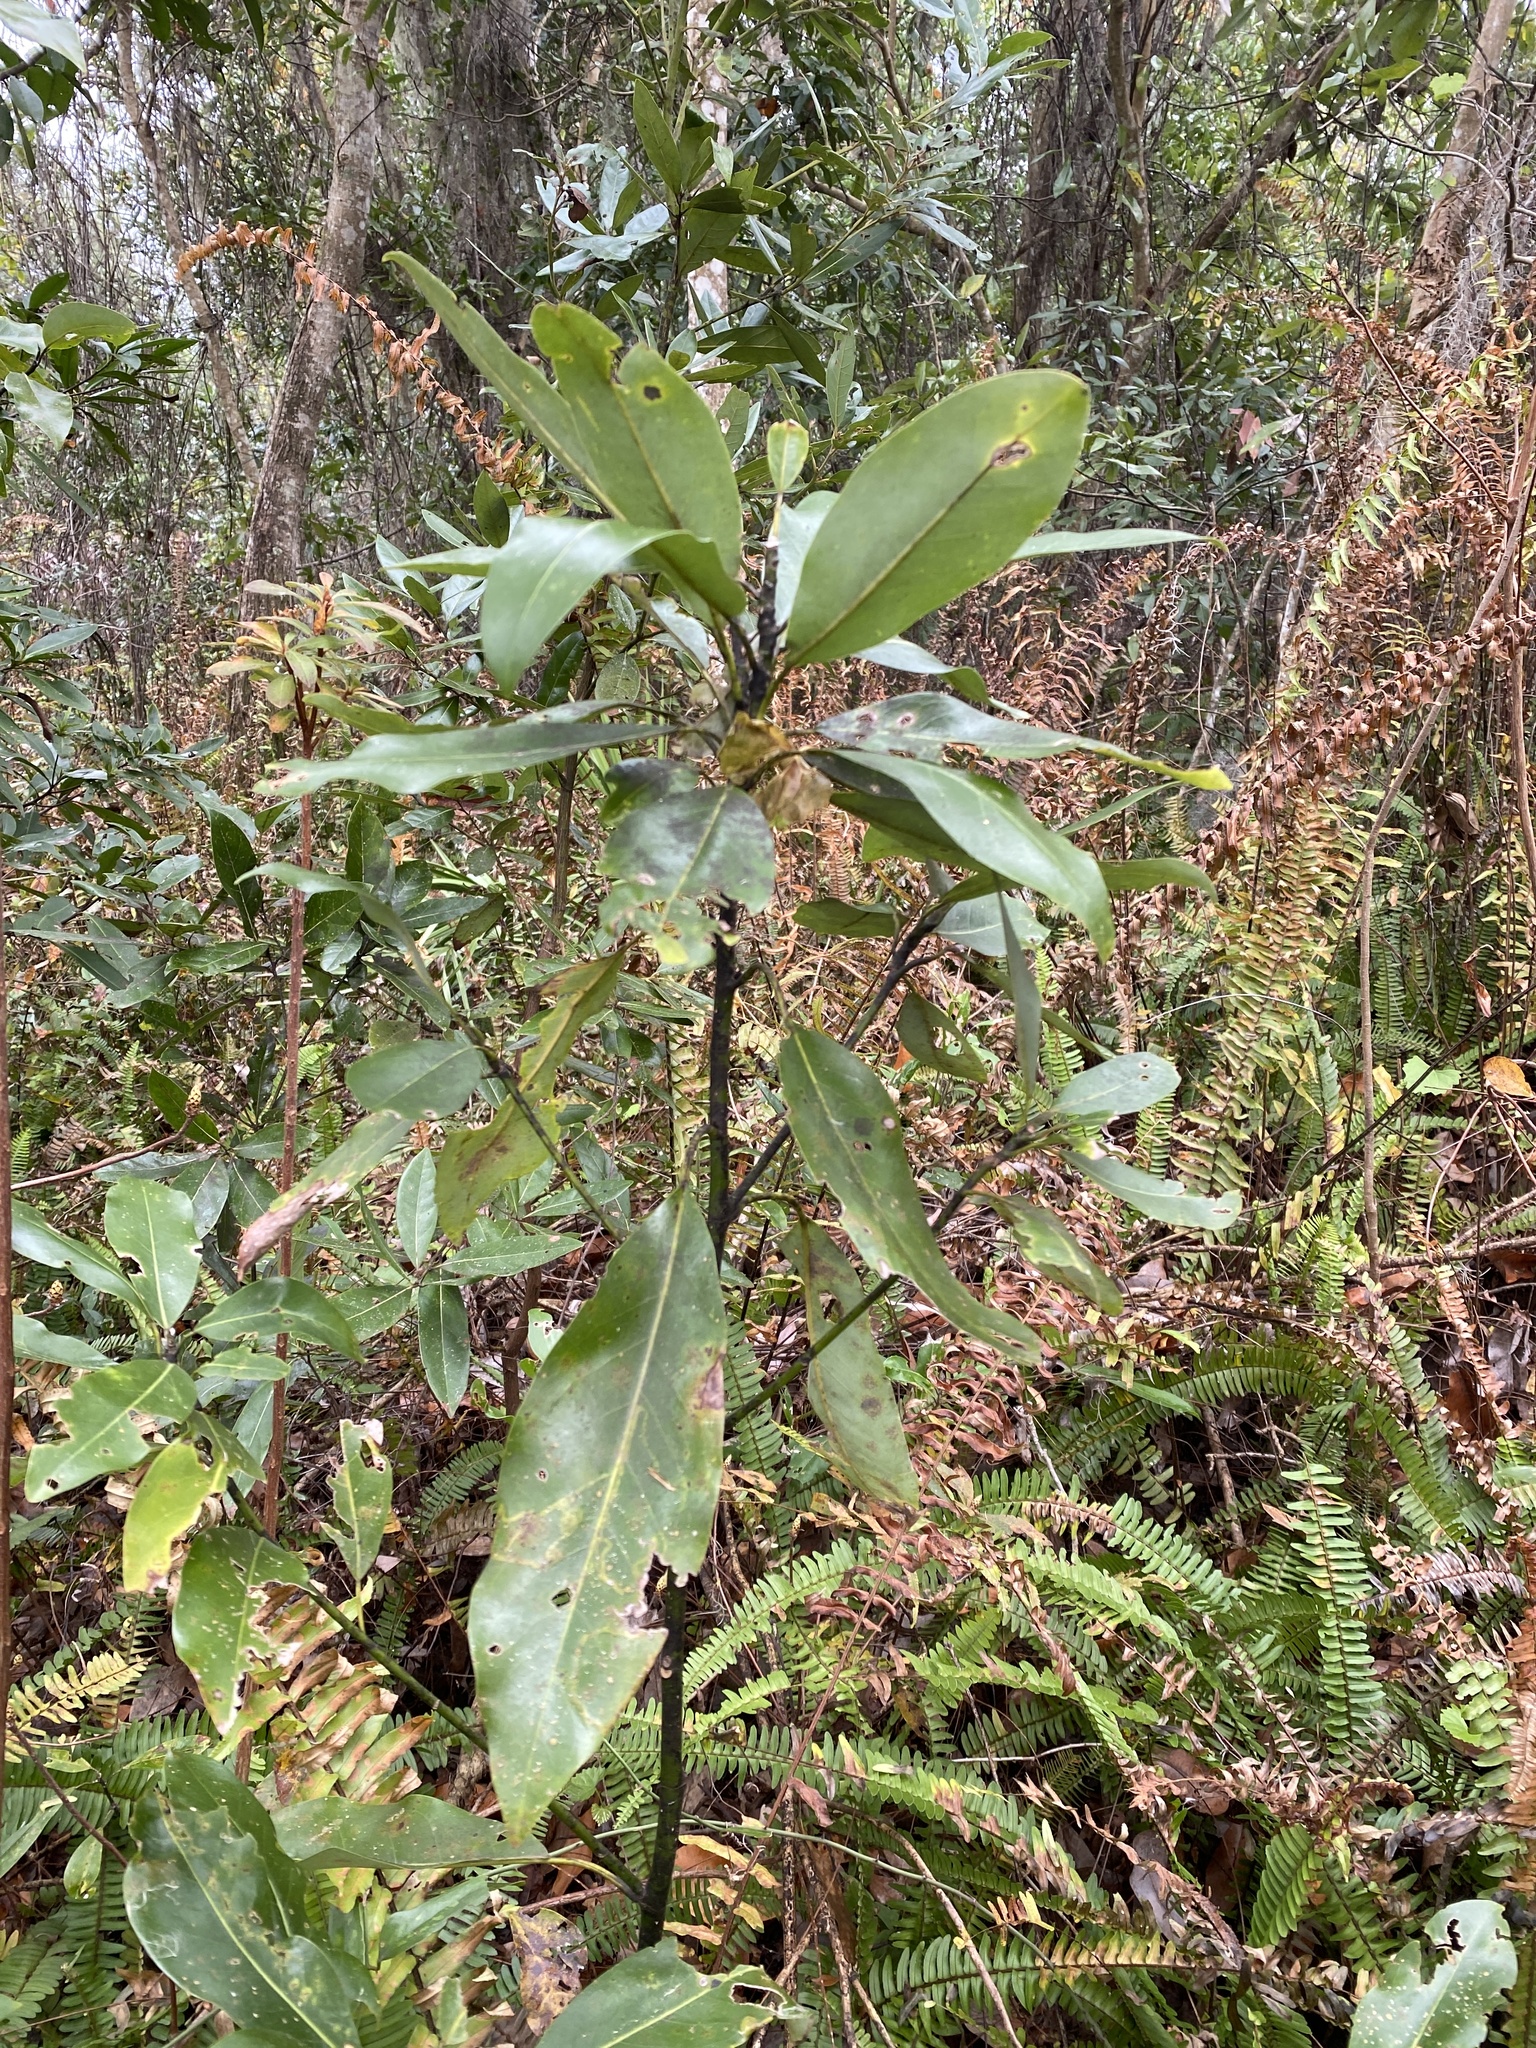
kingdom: Plantae
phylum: Tracheophyta
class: Magnoliopsida
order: Magnoliales
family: Magnoliaceae
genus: Magnolia
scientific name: Magnolia virginiana
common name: Swamp bay
